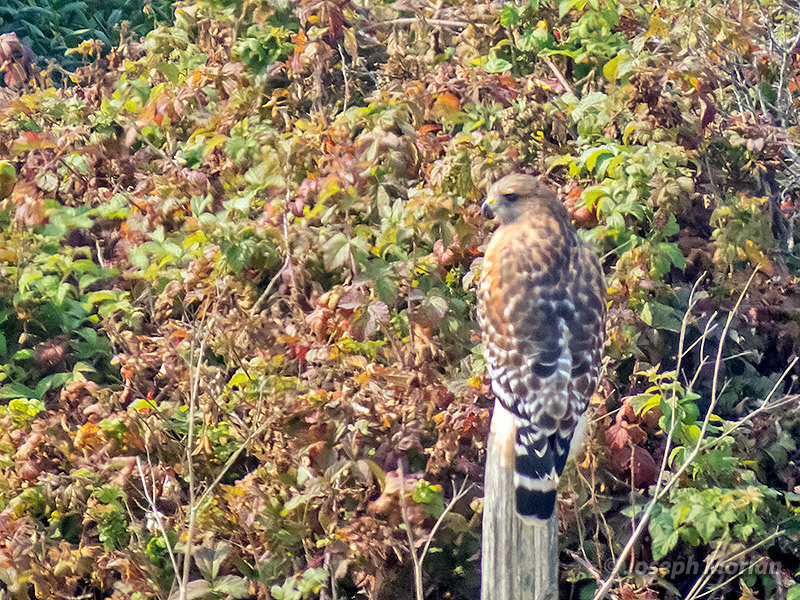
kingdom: Animalia
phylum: Chordata
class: Aves
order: Accipitriformes
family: Accipitridae
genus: Buteo
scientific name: Buteo lineatus
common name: Red-shouldered hawk
